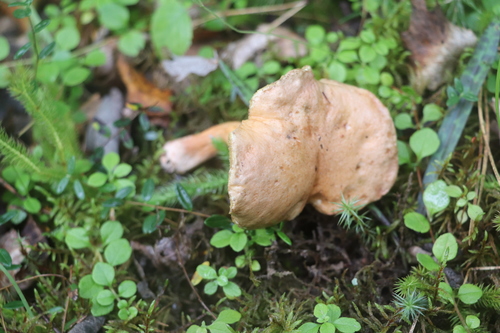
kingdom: Fungi
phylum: Basidiomycota
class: Agaricomycetes
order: Boletales
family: Suillaceae
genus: Suillus
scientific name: Suillus bovinus
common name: Bovine bolete
